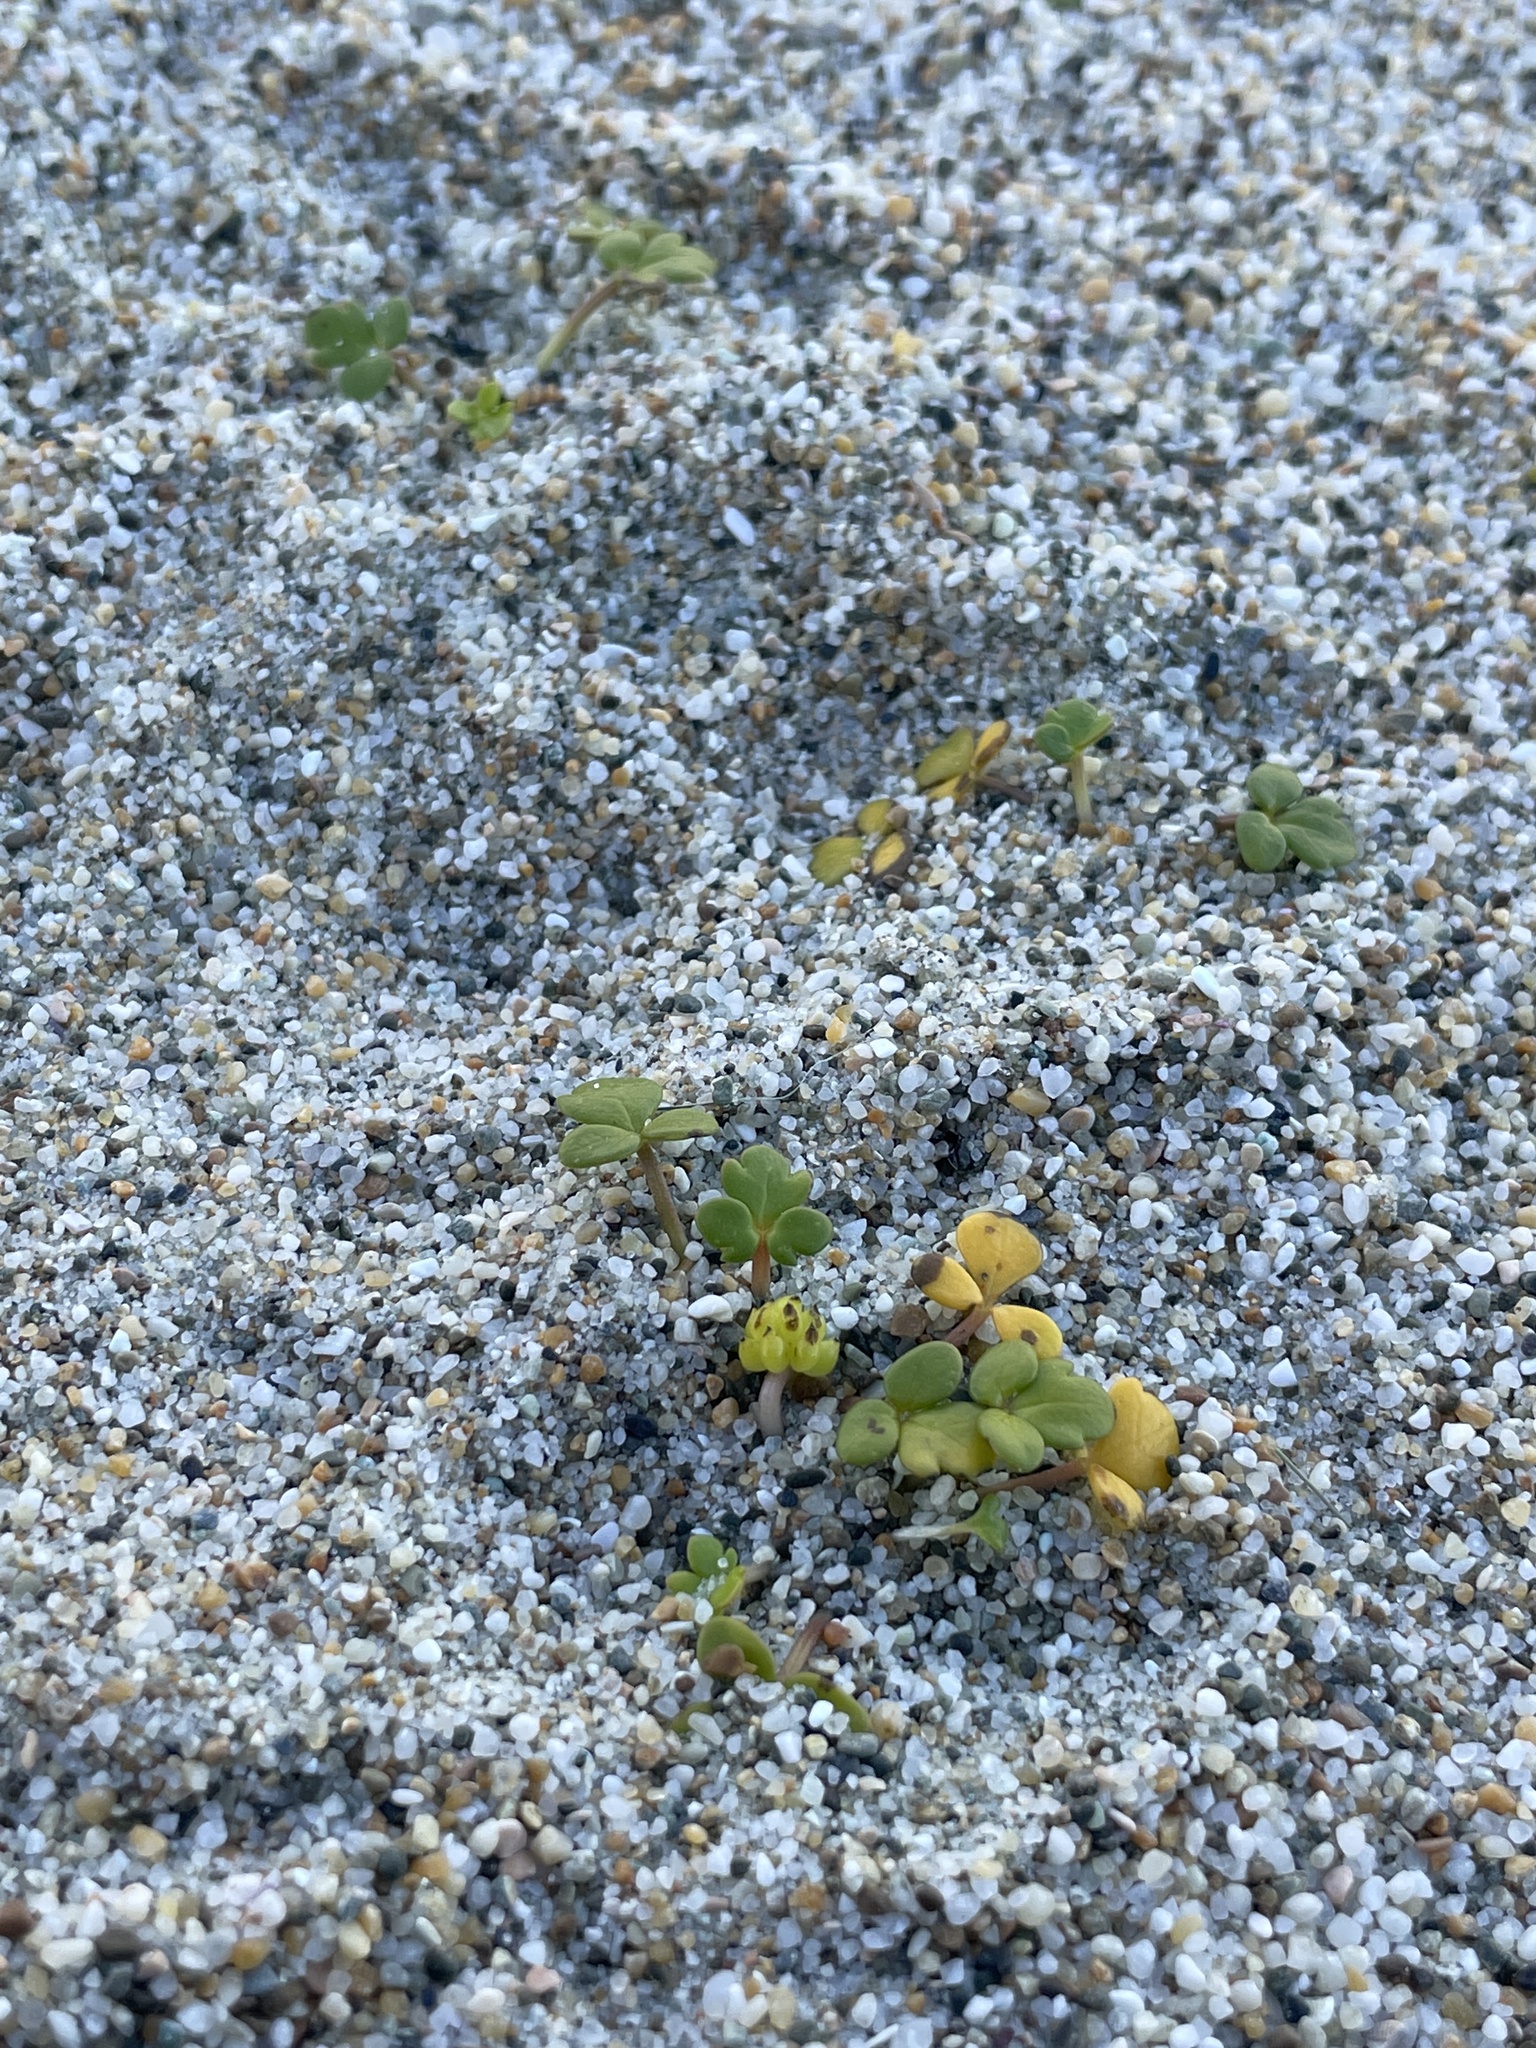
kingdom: Plantae
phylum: Tracheophyta
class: Magnoliopsida
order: Ranunculales
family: Ranunculaceae
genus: Ranunculus
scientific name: Ranunculus acaulis
